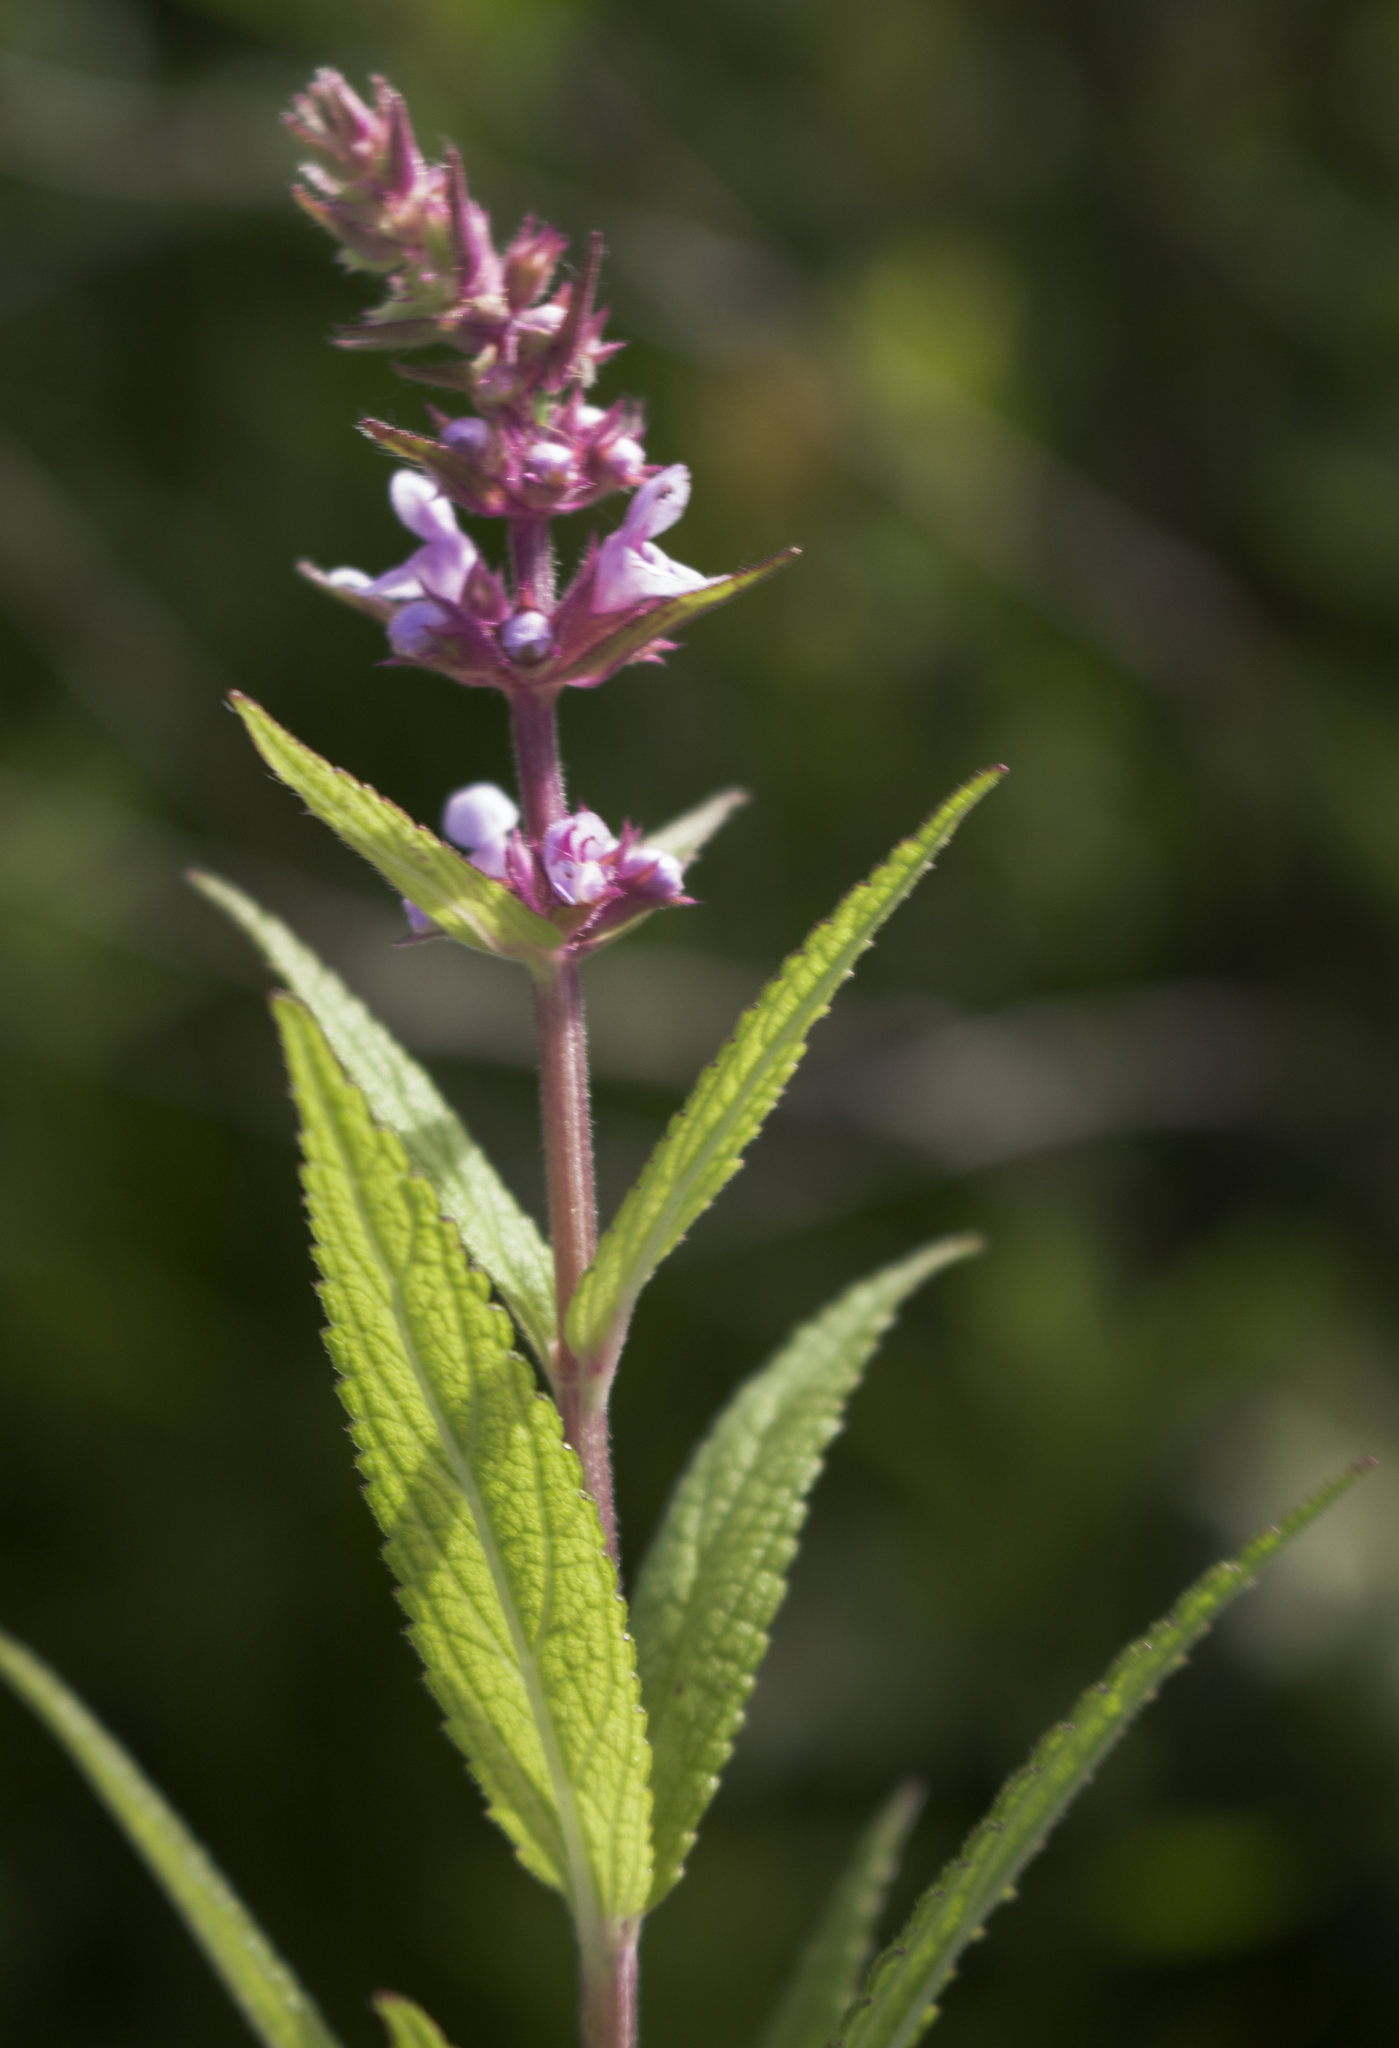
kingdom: Plantae
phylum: Tracheophyta
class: Magnoliopsida
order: Lamiales
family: Lamiaceae
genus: Stachys
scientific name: Stachys palustris
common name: Marsh woundwort
